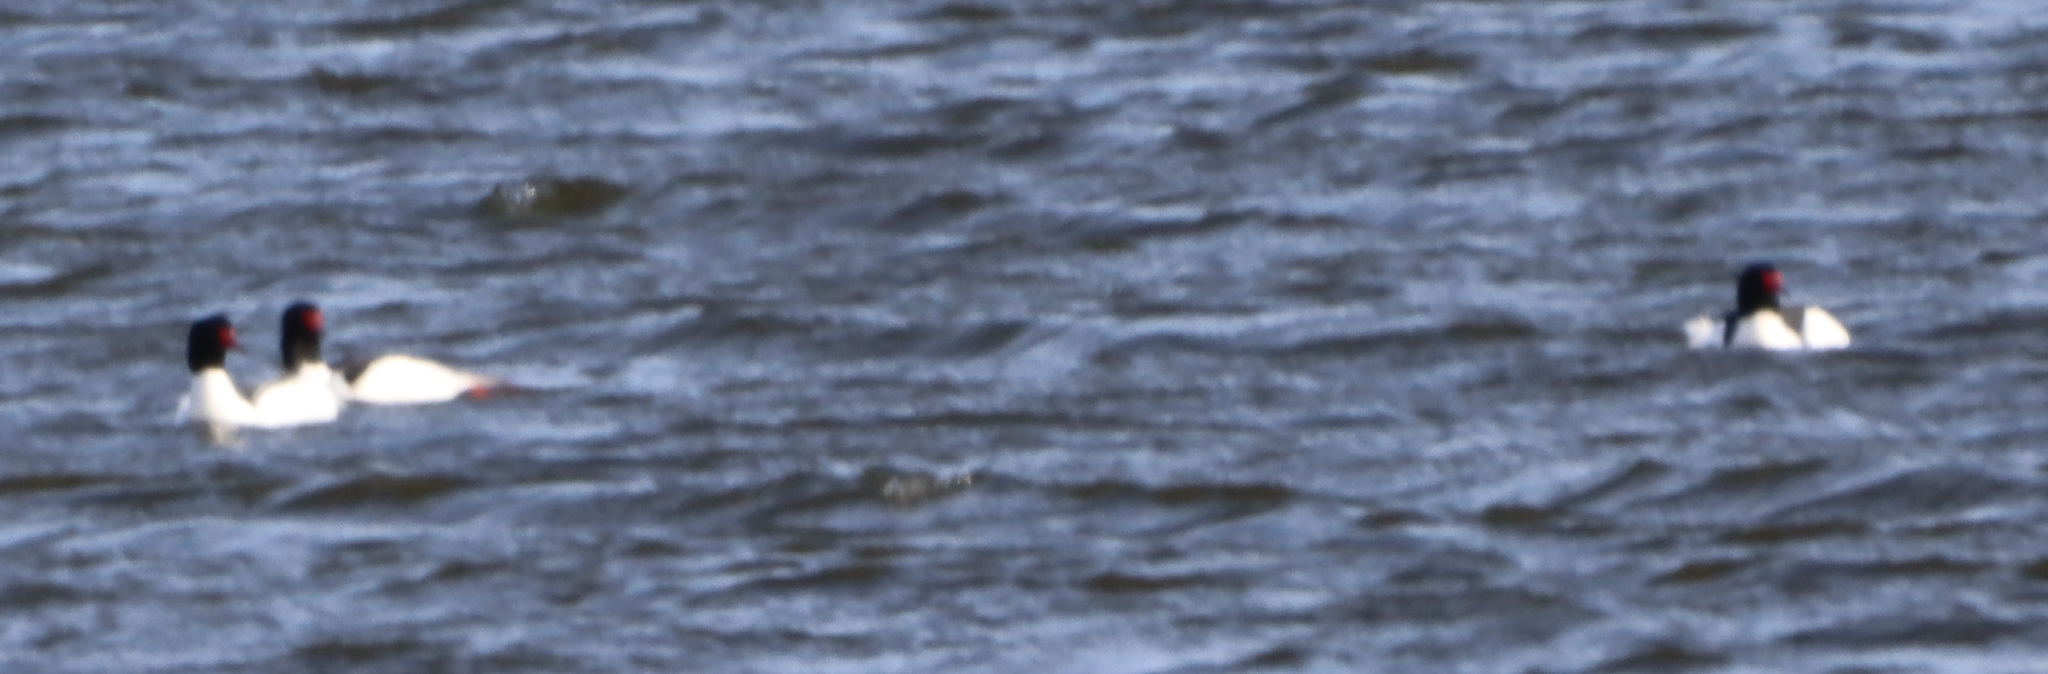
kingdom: Animalia
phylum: Chordata
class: Aves
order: Anseriformes
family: Anatidae
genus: Mergus
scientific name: Mergus merganser
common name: Common merganser
